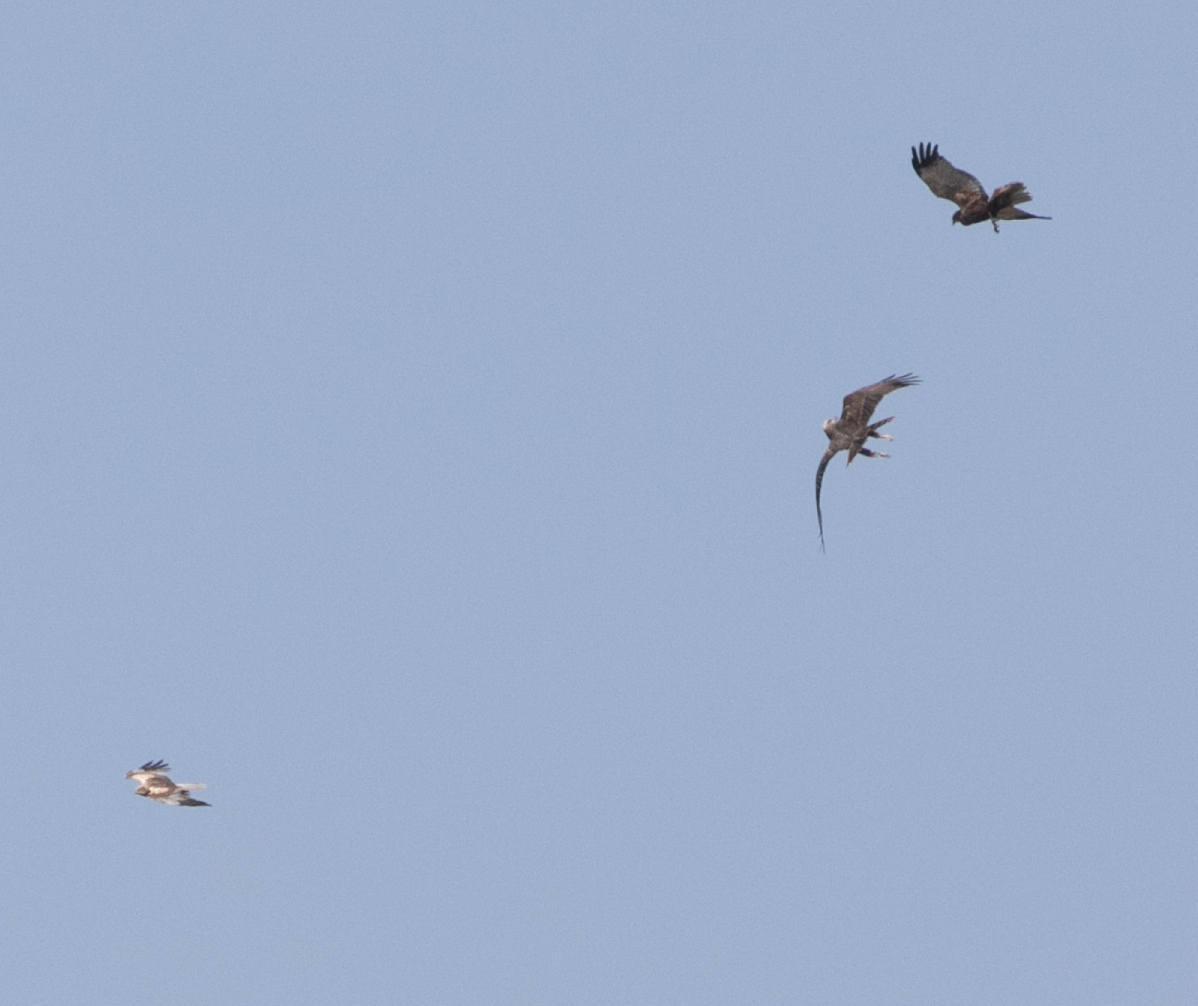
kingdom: Animalia
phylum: Chordata
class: Aves
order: Accipitriformes
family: Accipitridae
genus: Circus
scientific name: Circus aeruginosus
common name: Western marsh harrier
